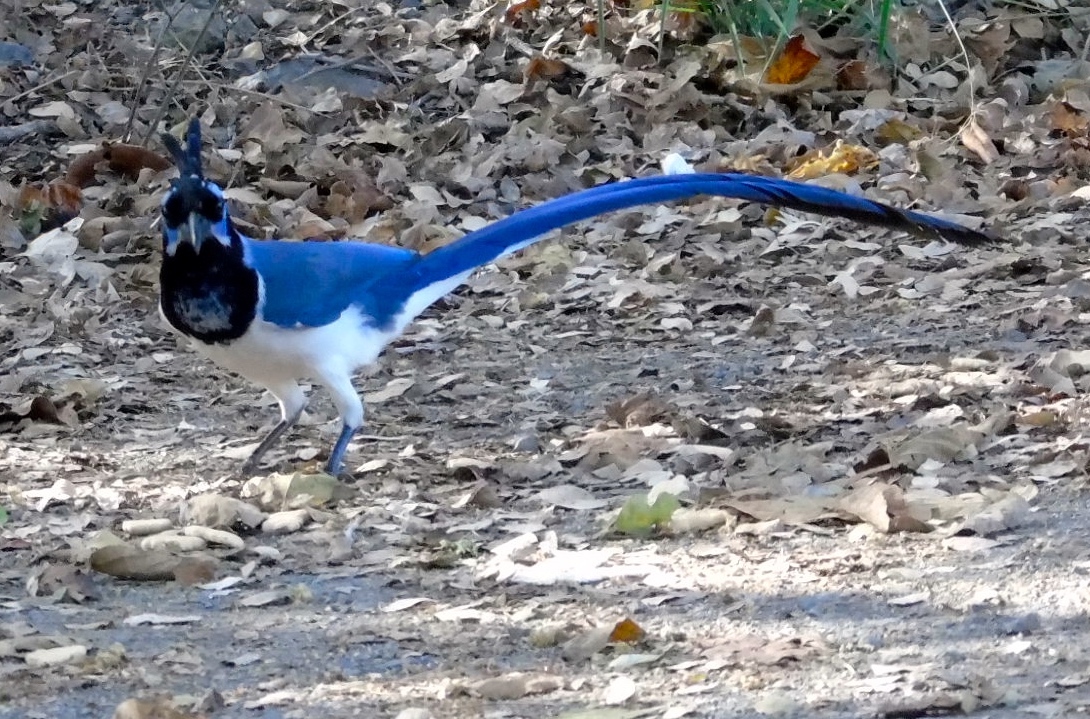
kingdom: Animalia
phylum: Chordata
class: Aves
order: Passeriformes
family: Corvidae
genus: Calocitta
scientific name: Calocitta colliei
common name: Black-throated magpie-jay
